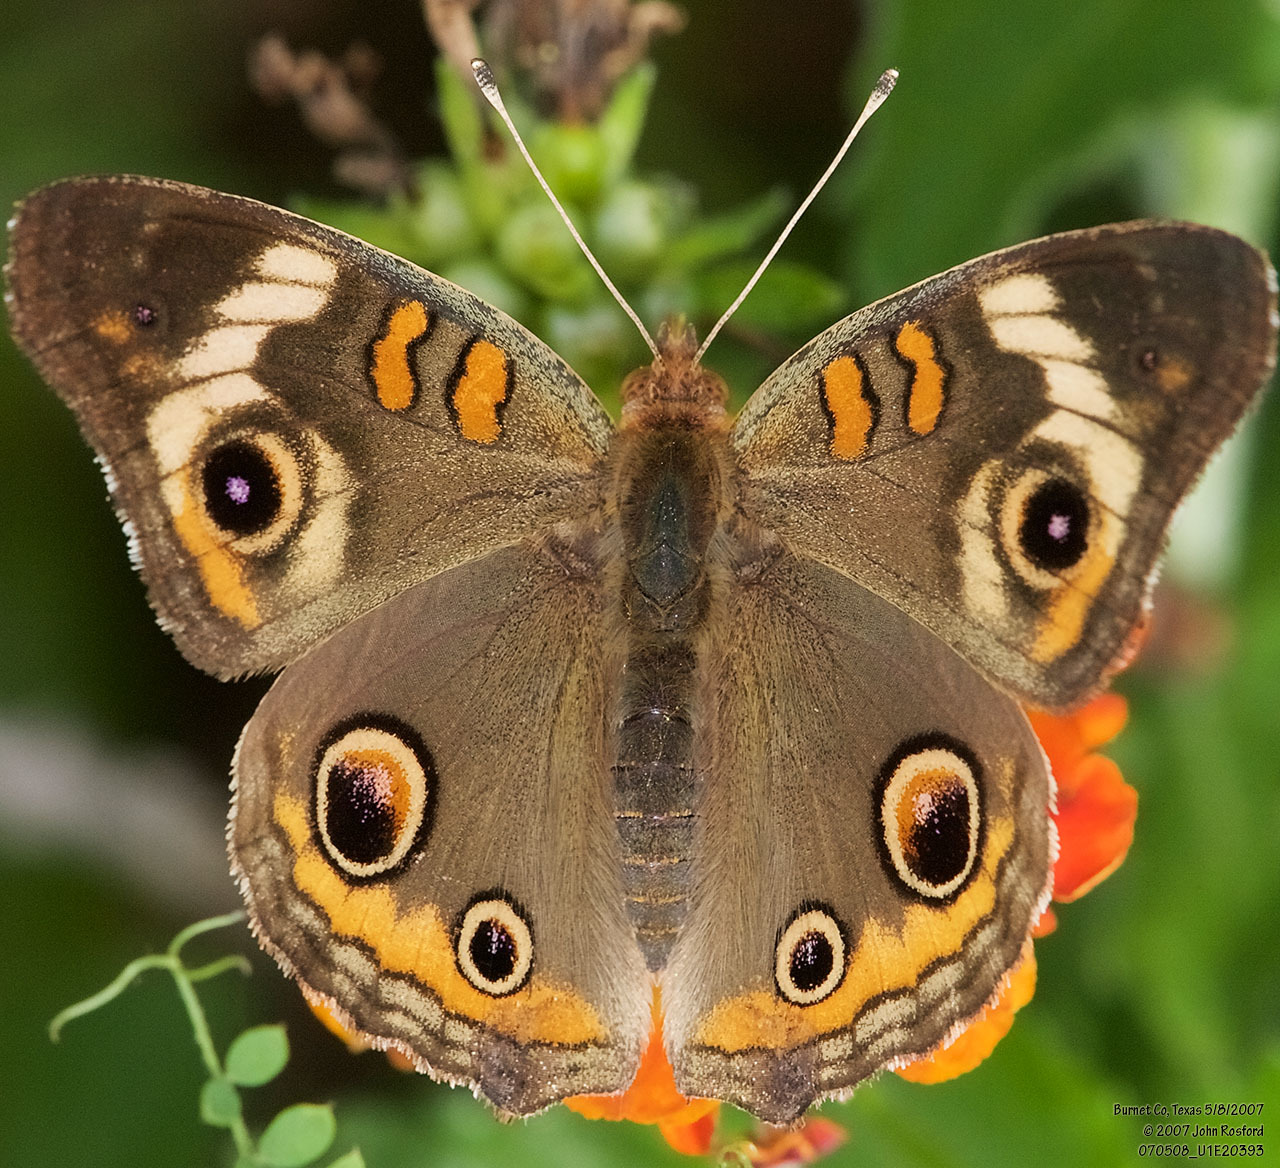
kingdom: Animalia
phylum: Arthropoda
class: Insecta
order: Lepidoptera
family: Nymphalidae
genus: Junonia
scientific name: Junonia coenia
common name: Common buckeye
